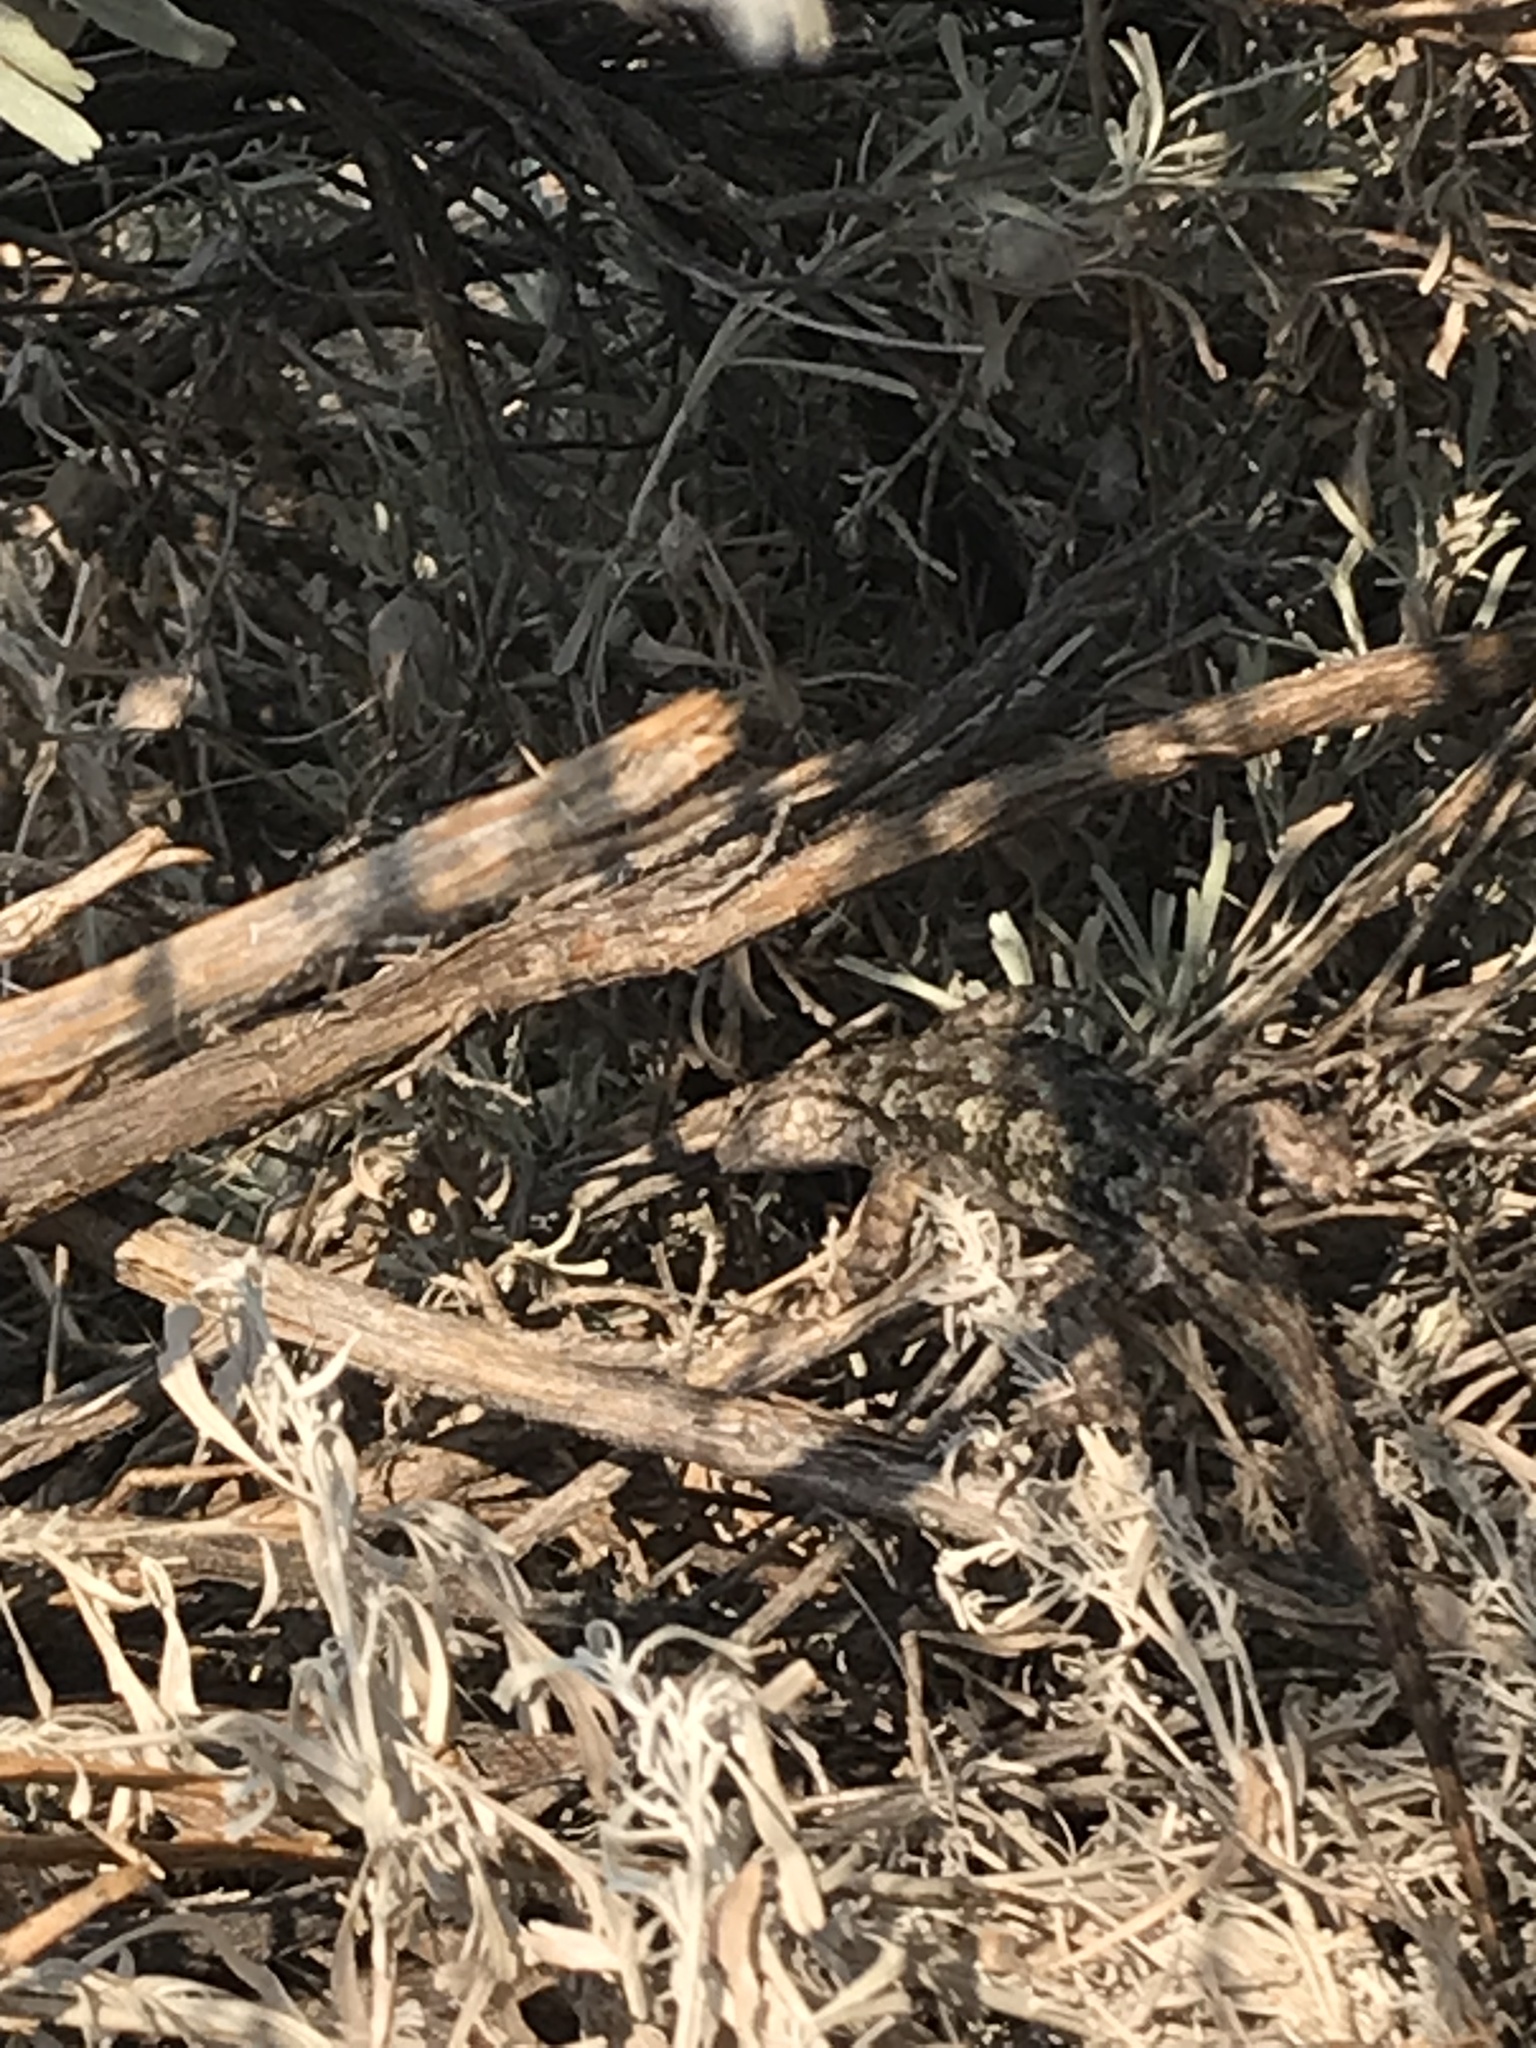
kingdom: Animalia
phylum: Chordata
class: Squamata
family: Phrynosomatidae
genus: Sceloporus
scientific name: Sceloporus occidentalis
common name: Western fence lizard
